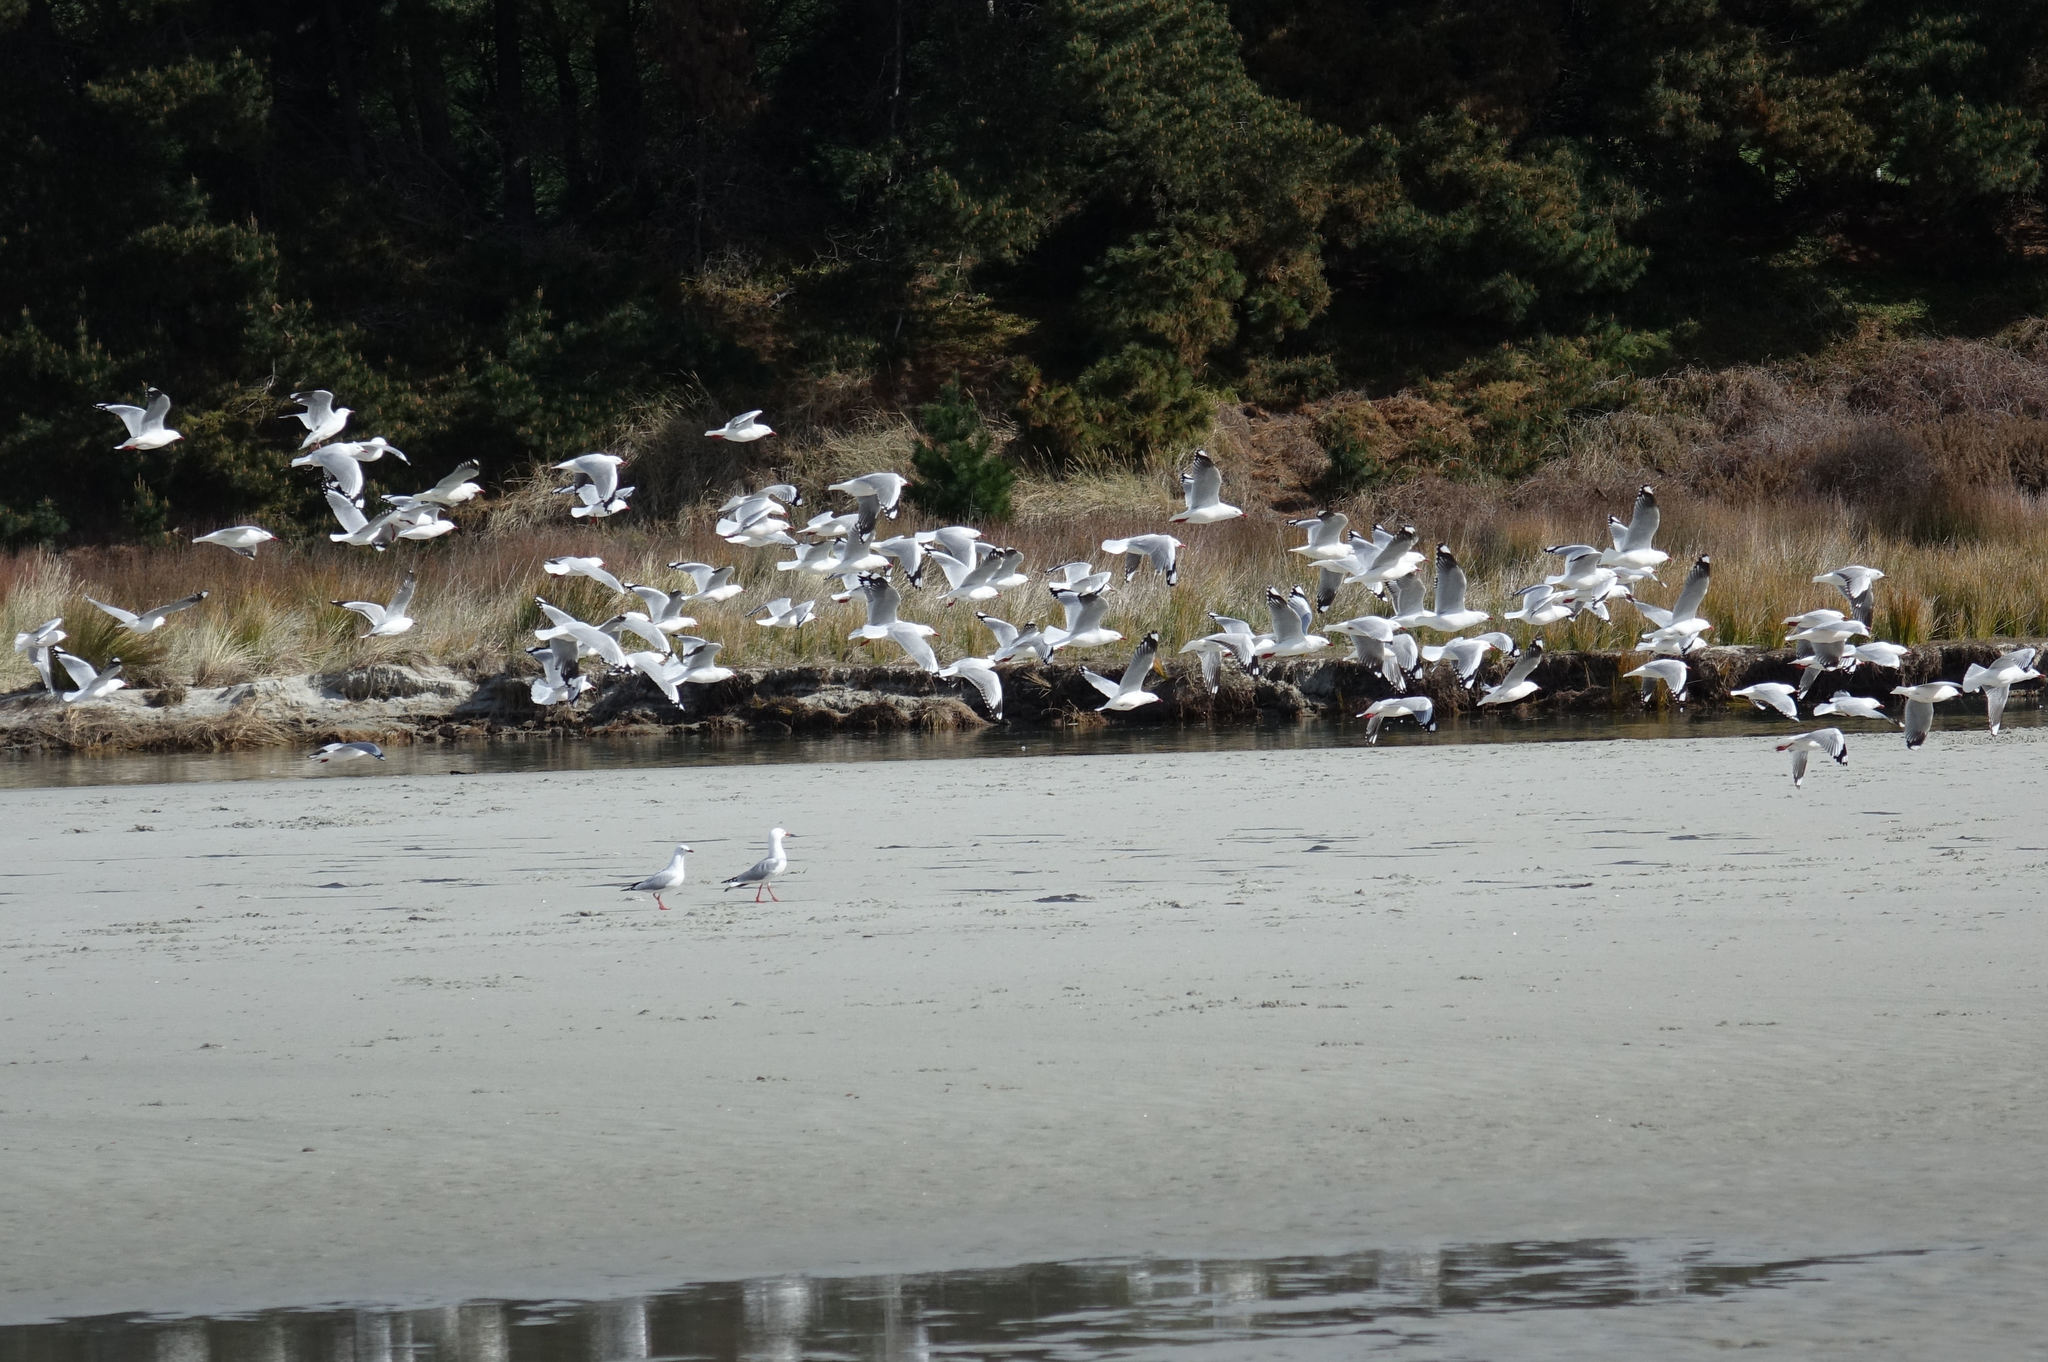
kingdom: Animalia
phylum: Chordata
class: Aves
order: Charadriiformes
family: Laridae
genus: Chroicocephalus
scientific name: Chroicocephalus novaehollandiae
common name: Silver gull
